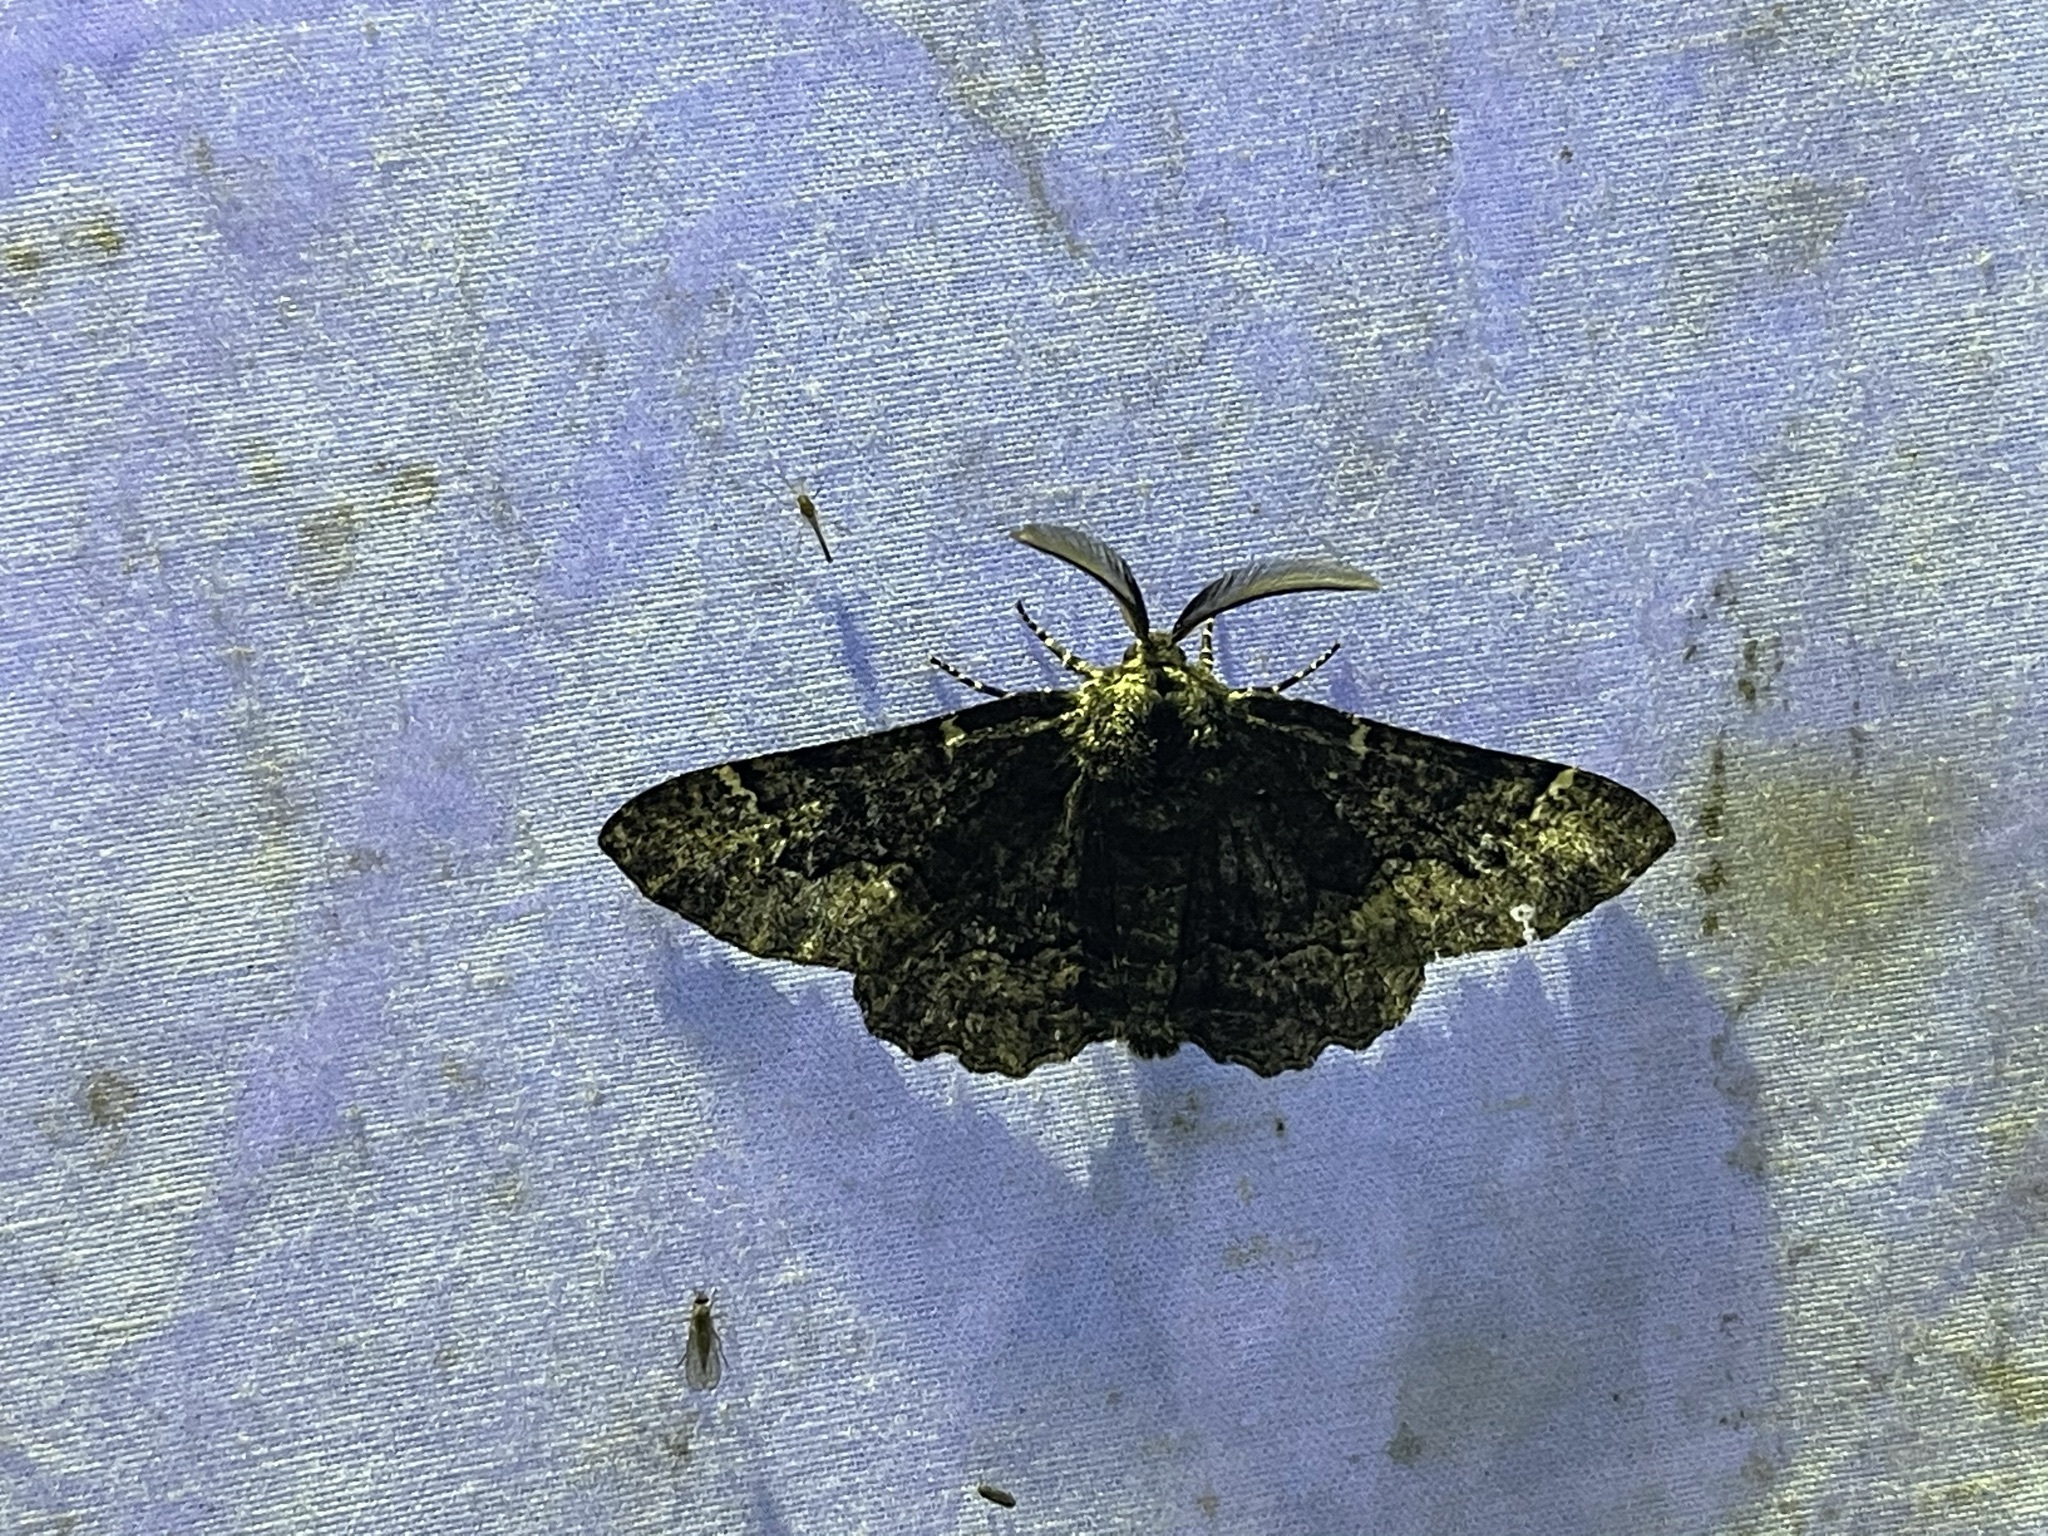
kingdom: Animalia
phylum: Arthropoda
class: Insecta
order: Lepidoptera
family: Geometridae
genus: Phaeoura
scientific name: Phaeoura quernaria
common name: Oak beauty
